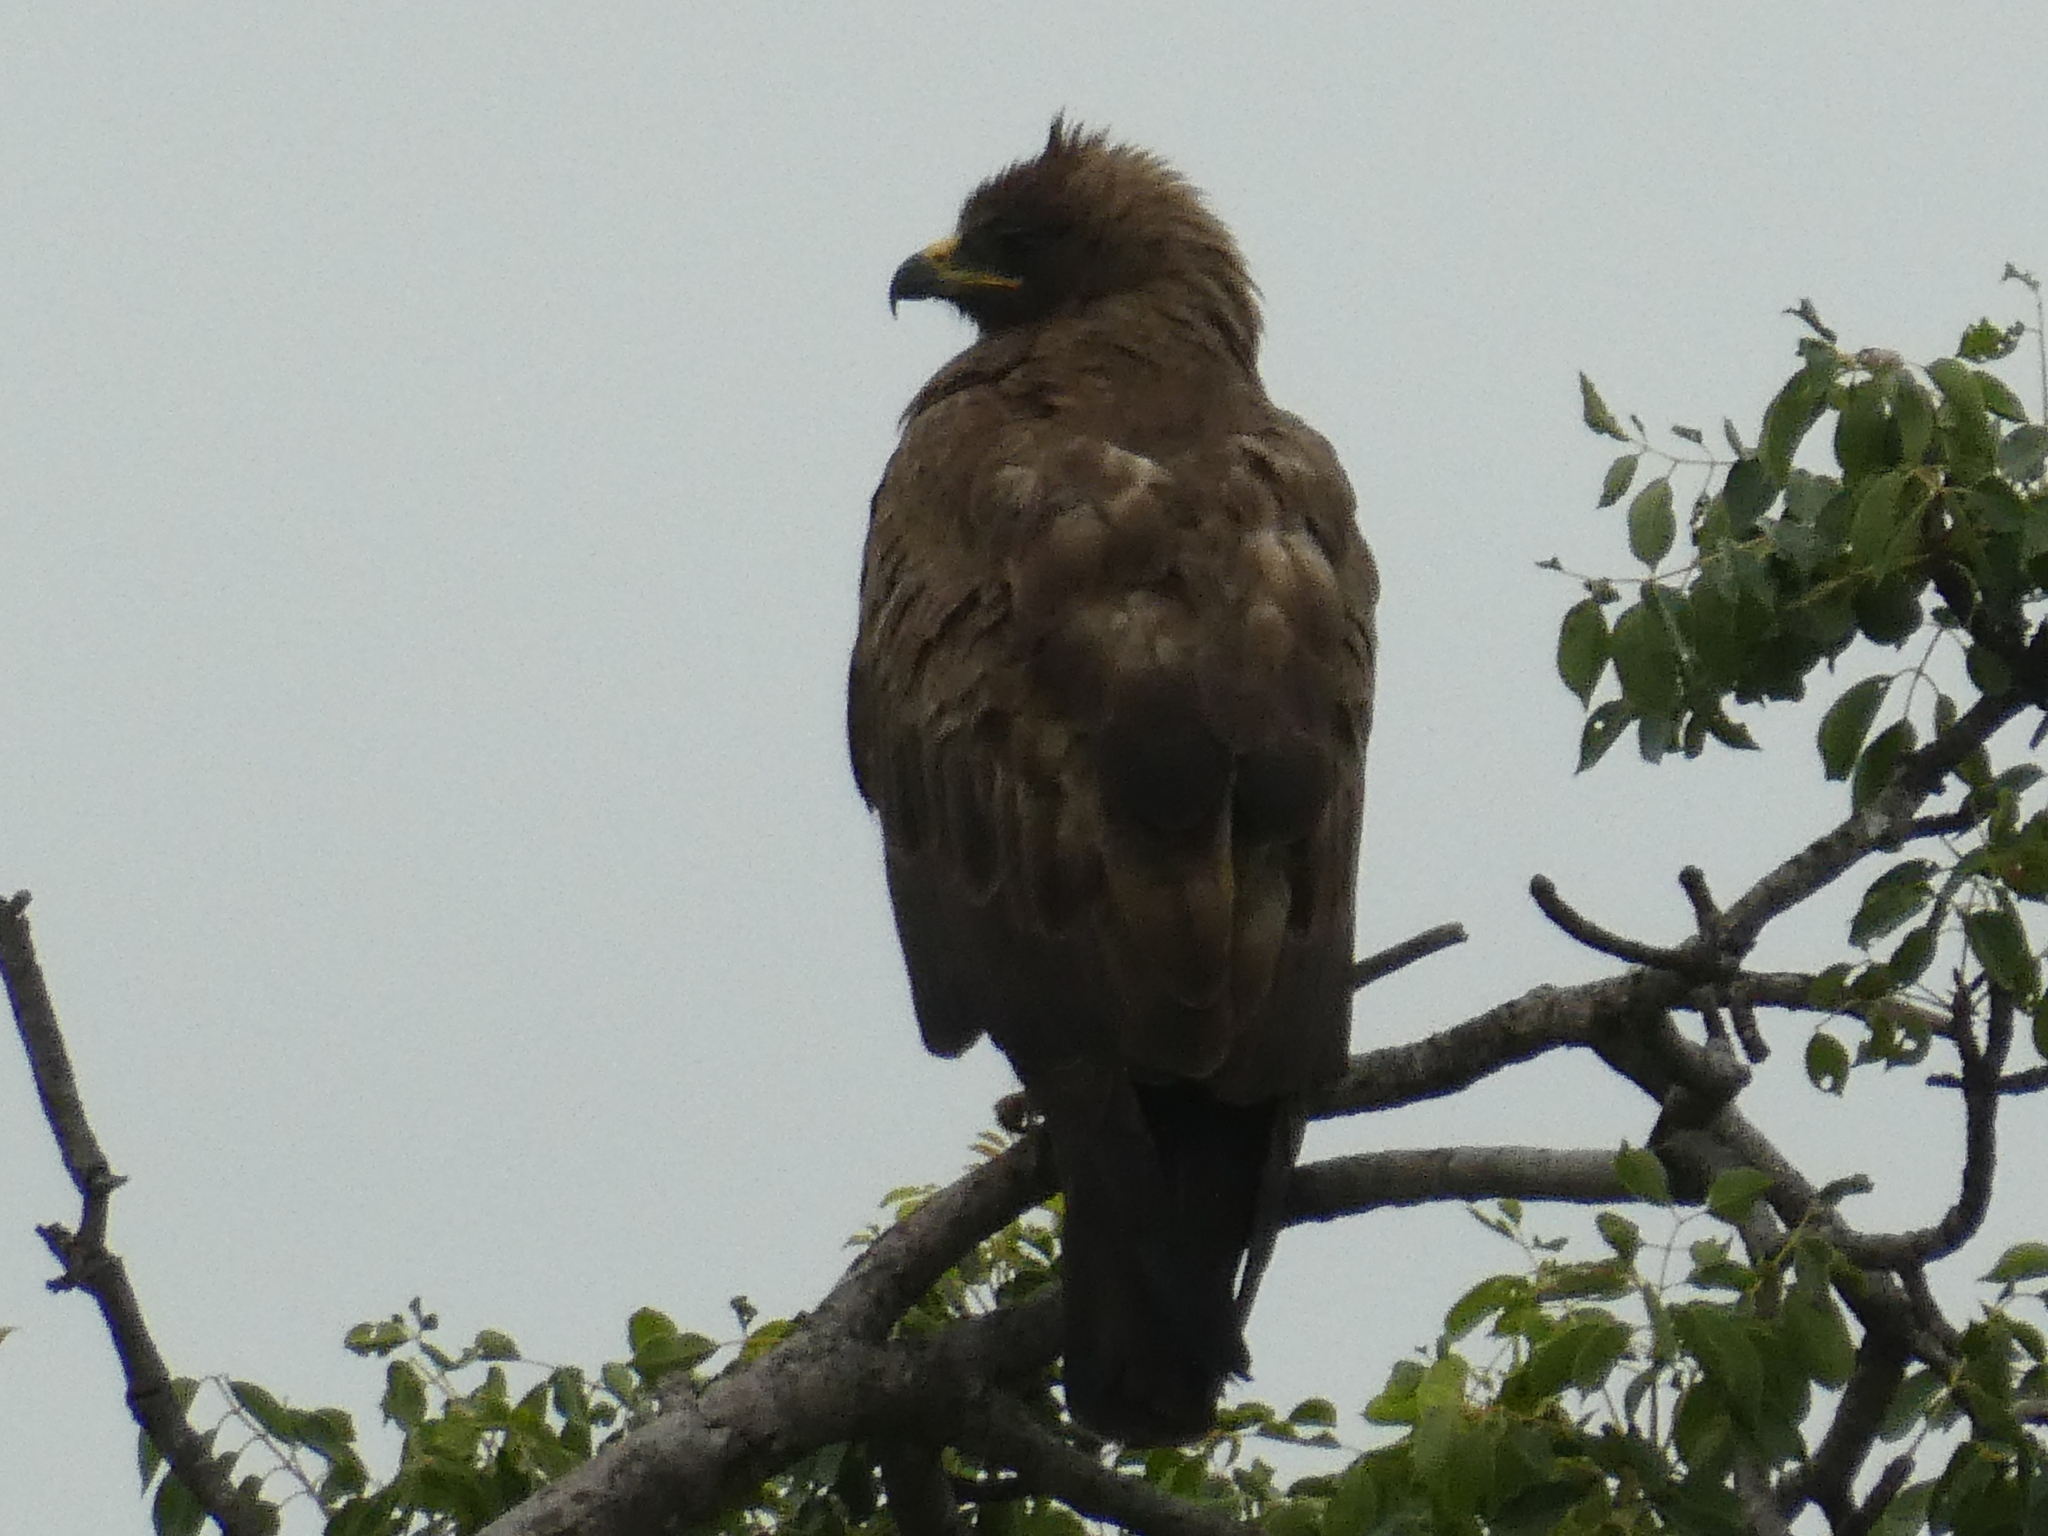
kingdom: Animalia
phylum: Chordata
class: Aves
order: Accipitriformes
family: Accipitridae
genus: Hieraaetus
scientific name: Hieraaetus wahlbergi
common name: Wahlberg's eagle
